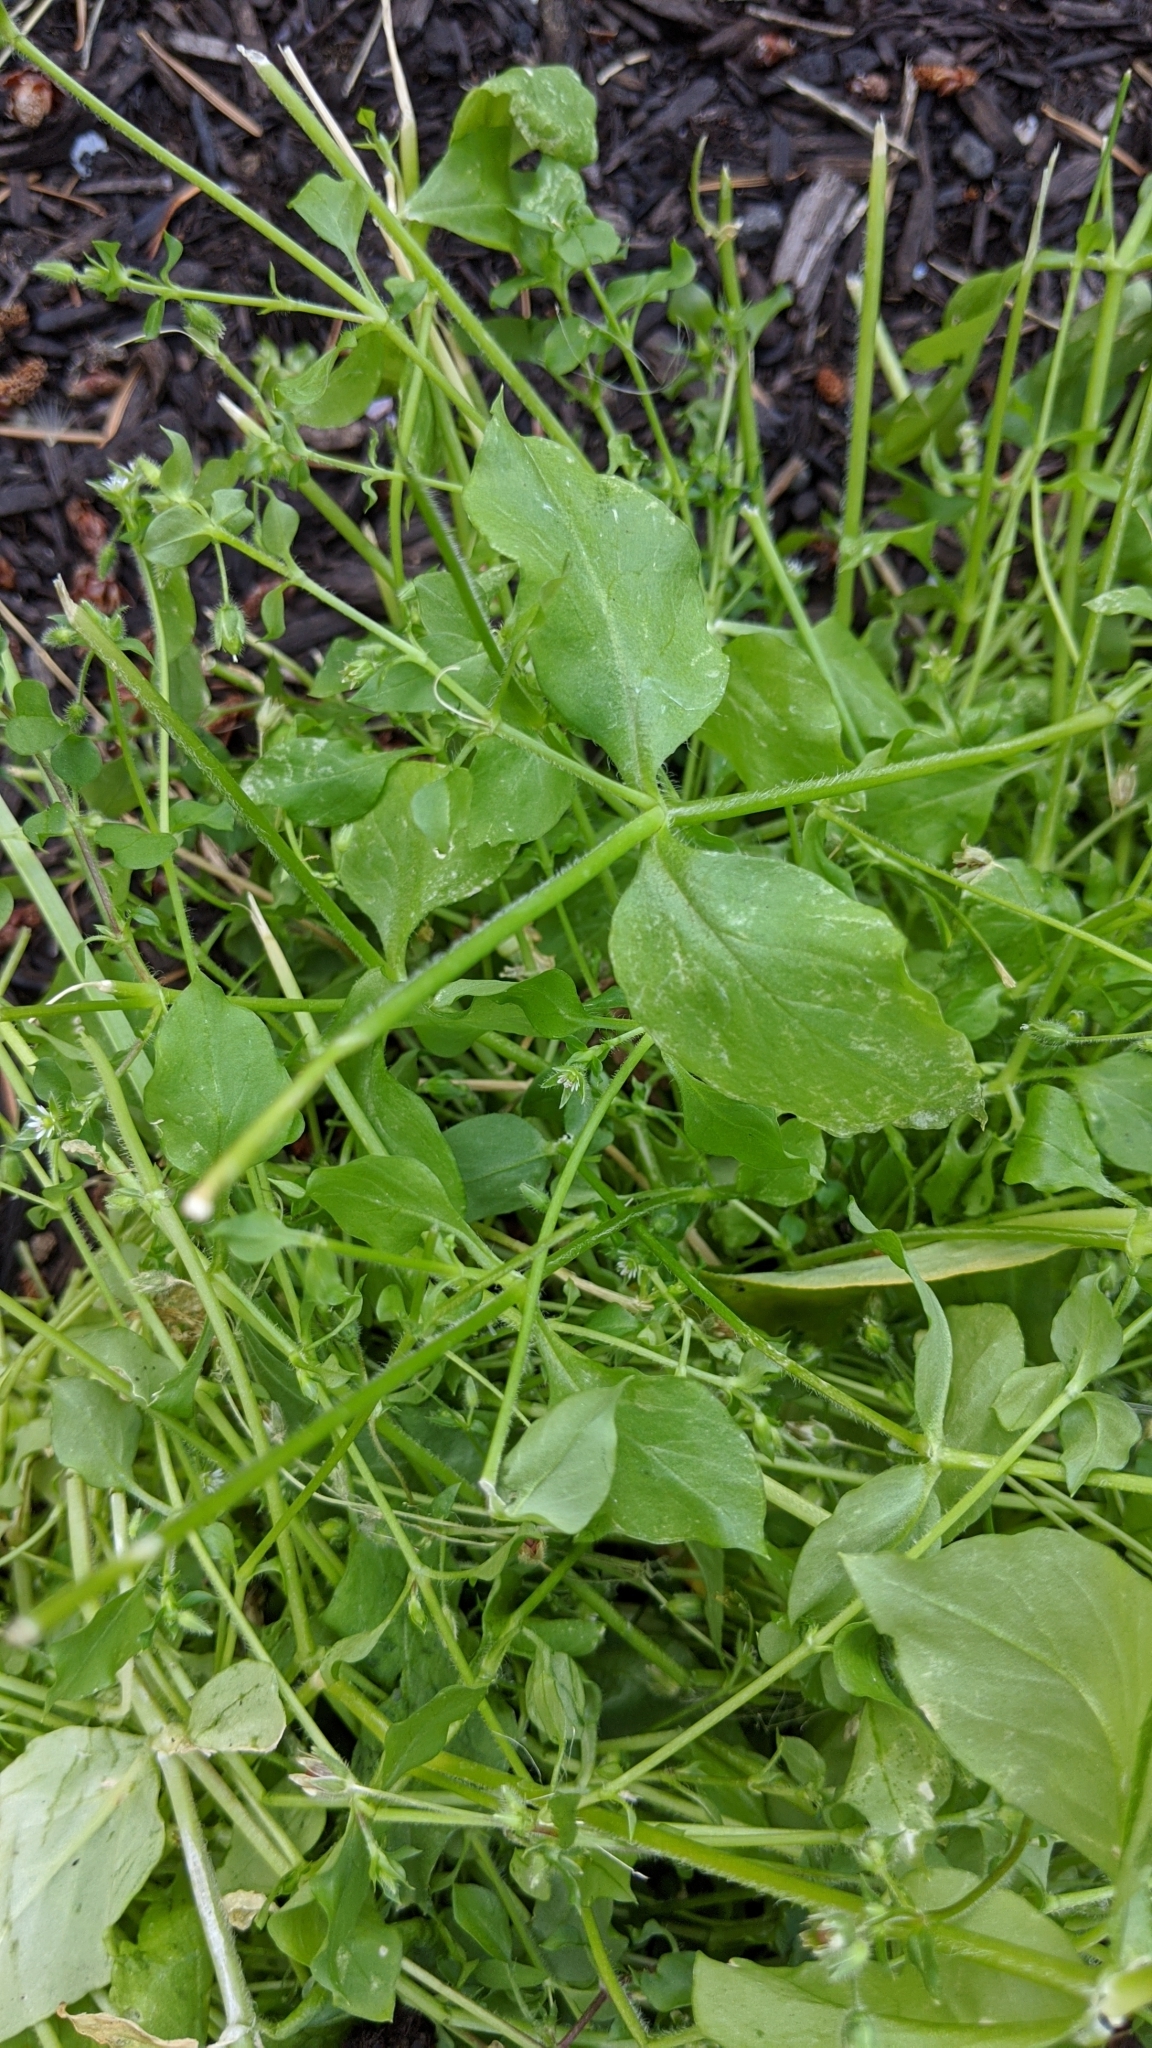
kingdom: Plantae
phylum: Tracheophyta
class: Magnoliopsida
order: Caryophyllales
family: Caryophyllaceae
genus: Stellaria
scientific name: Stellaria media
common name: Common chickweed
